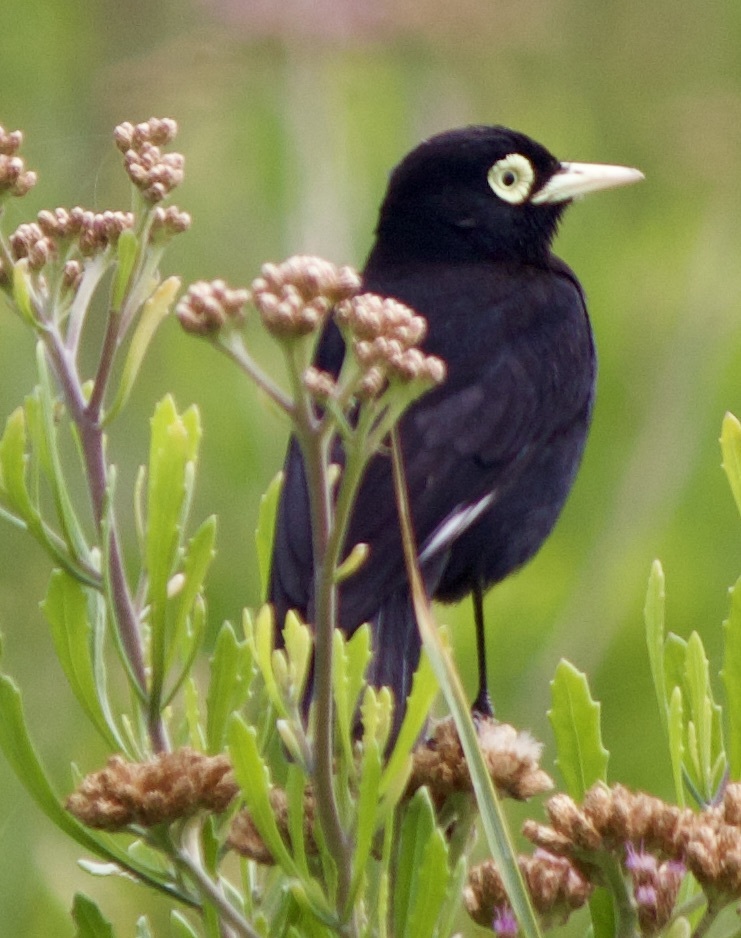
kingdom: Animalia
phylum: Chordata
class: Aves
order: Passeriformes
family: Tyrannidae
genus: Hymenops
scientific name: Hymenops perspicillatus
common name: Spectacled tyrant
